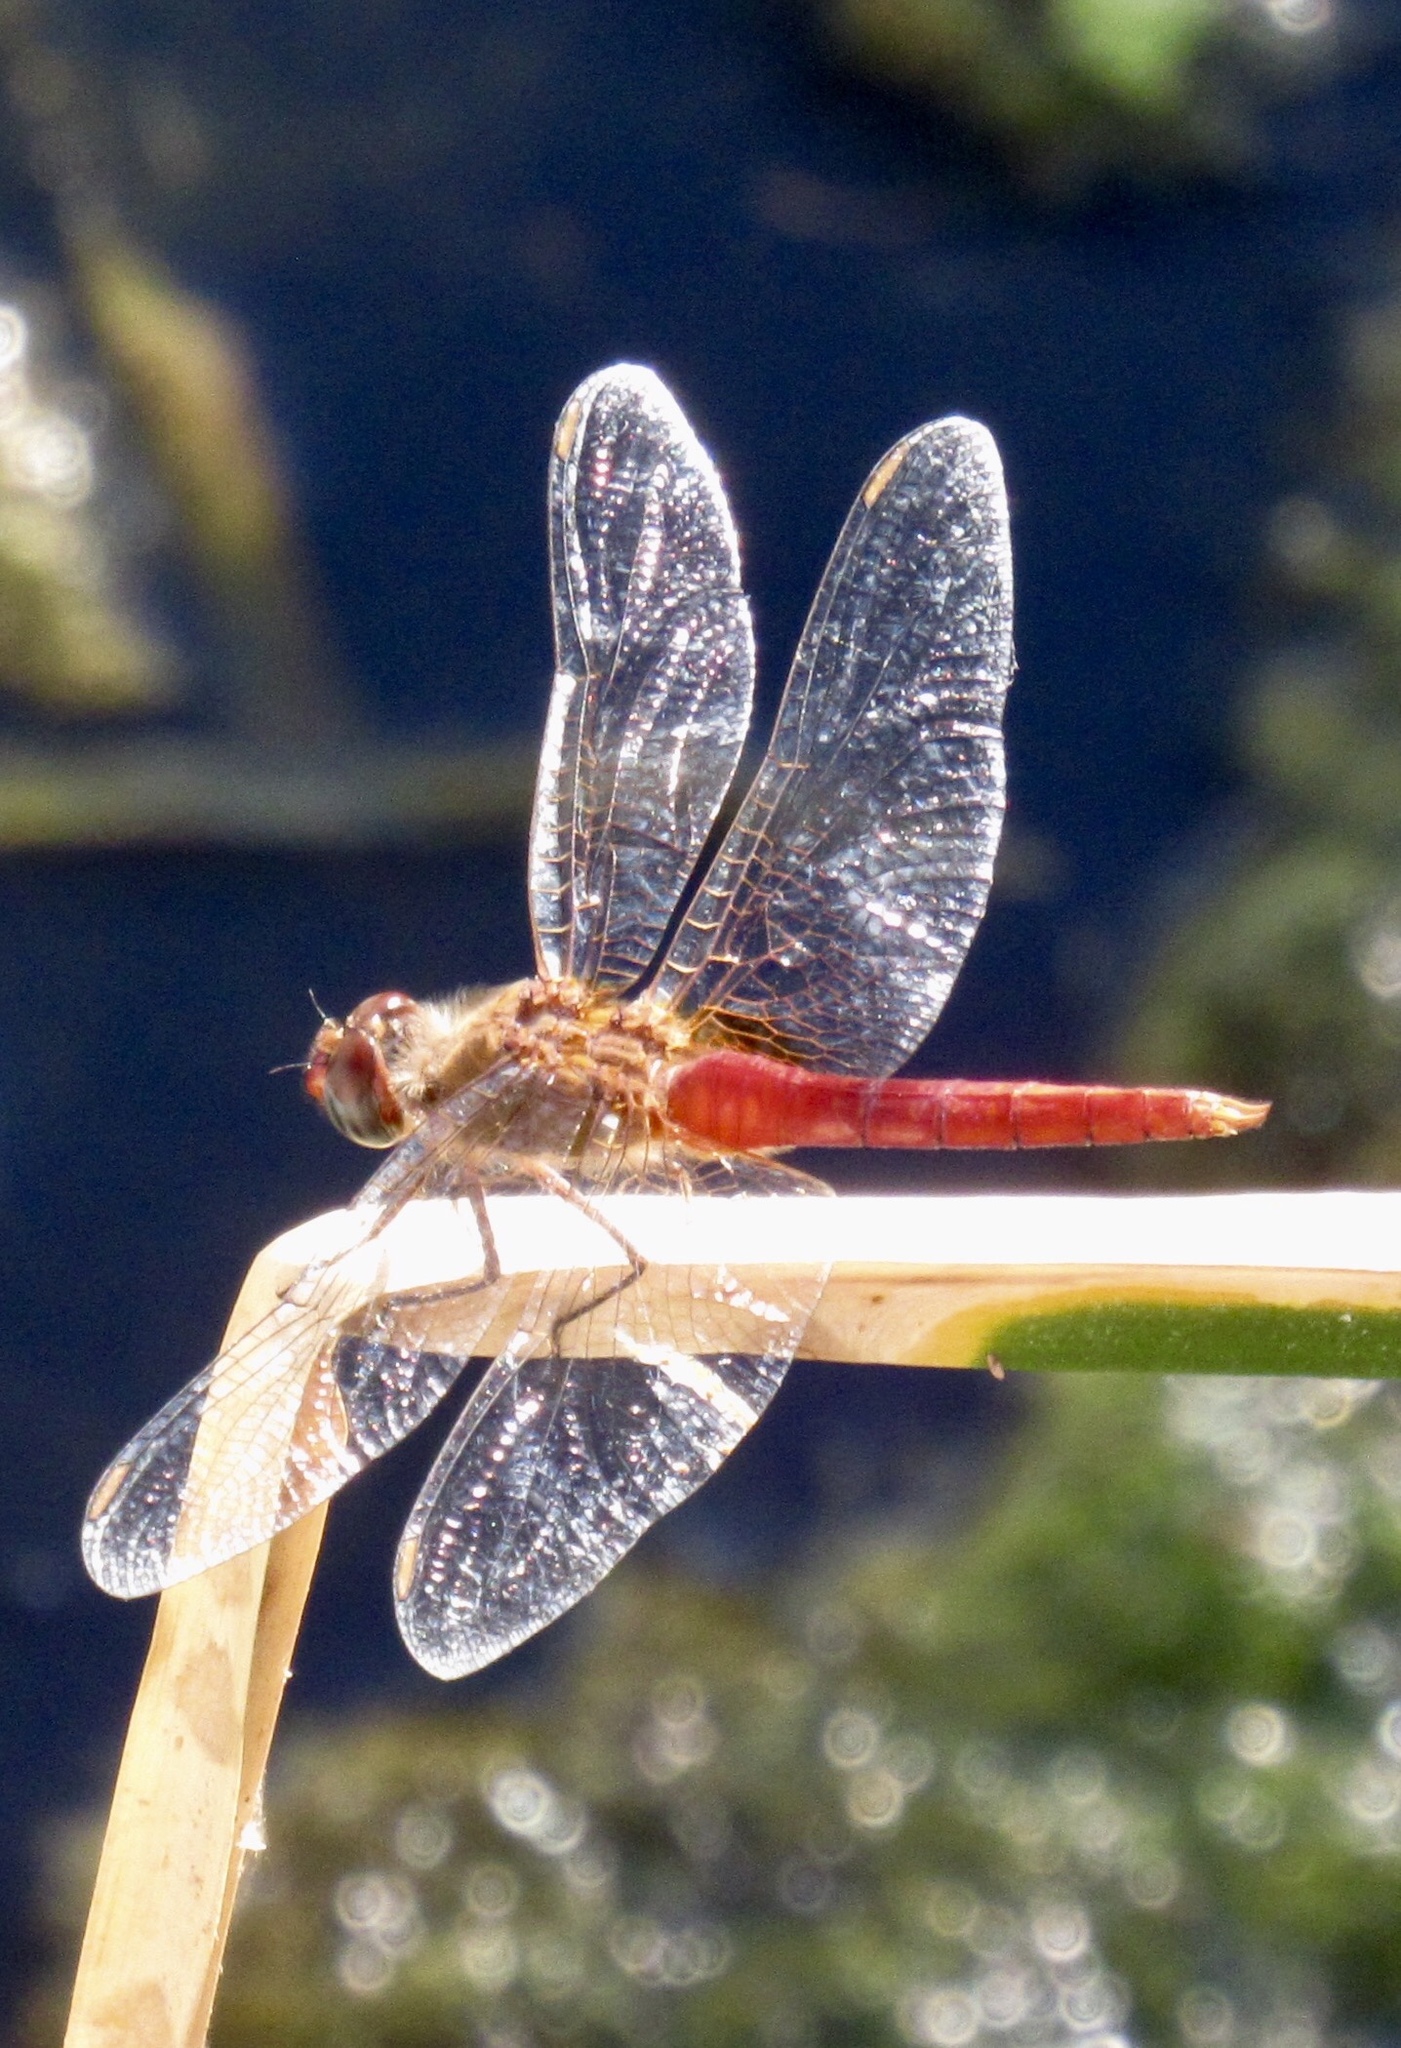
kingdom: Animalia
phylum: Arthropoda
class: Insecta
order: Odonata
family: Libellulidae
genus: Brachymesia
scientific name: Brachymesia furcata
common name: Red-taled pennant
